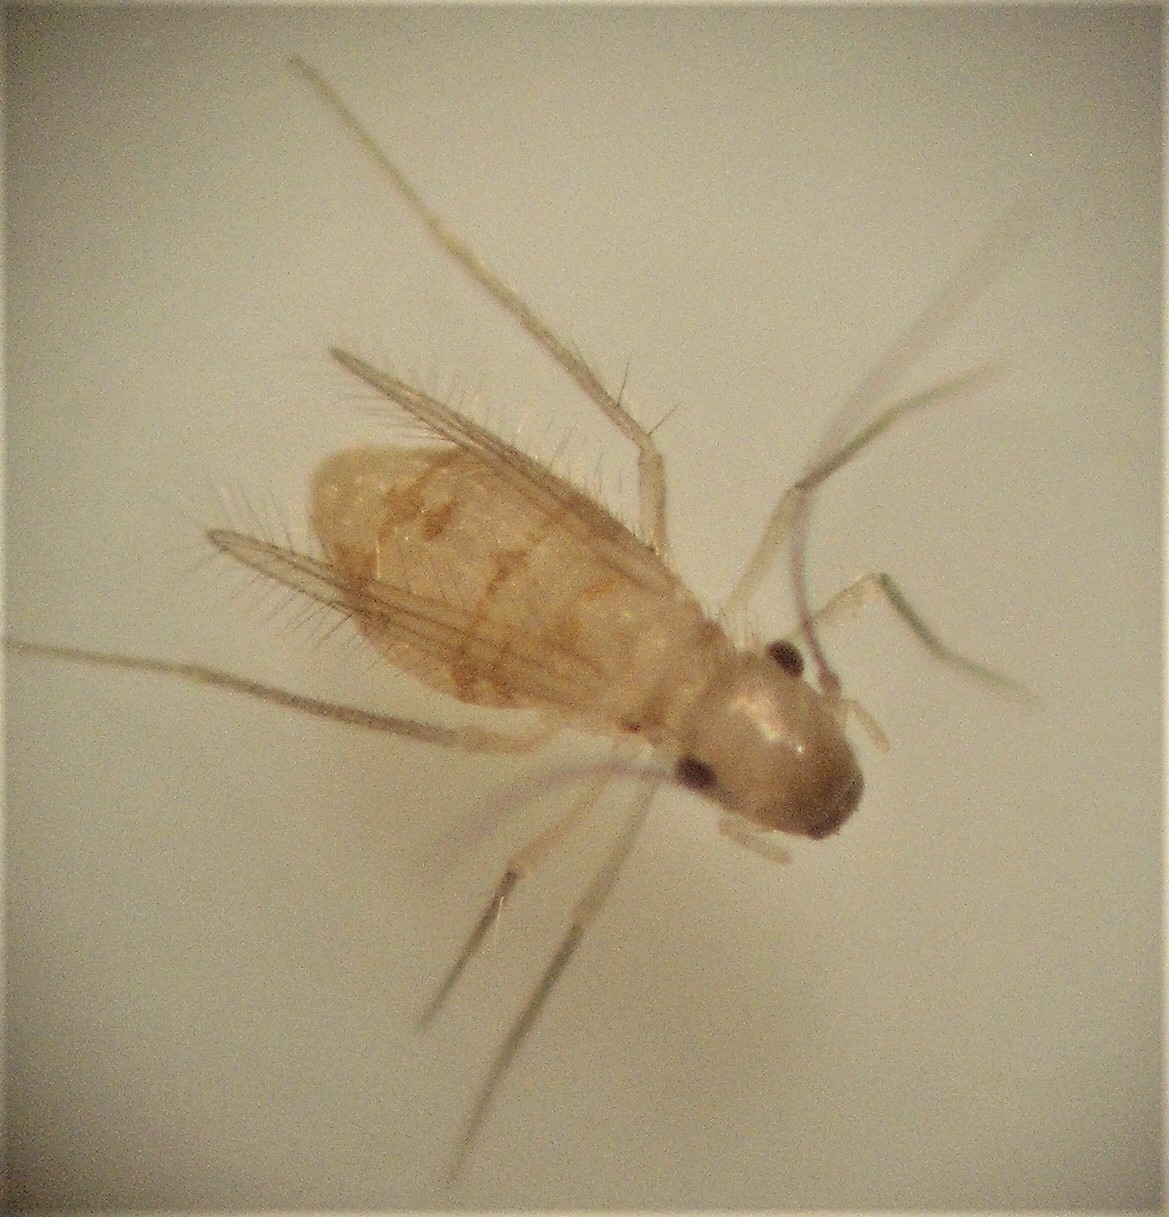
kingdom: Animalia
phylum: Arthropoda
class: Insecta
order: Psocodea
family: Psyllipsocidae
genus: Dorypteryx
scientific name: Dorypteryx longipennis
